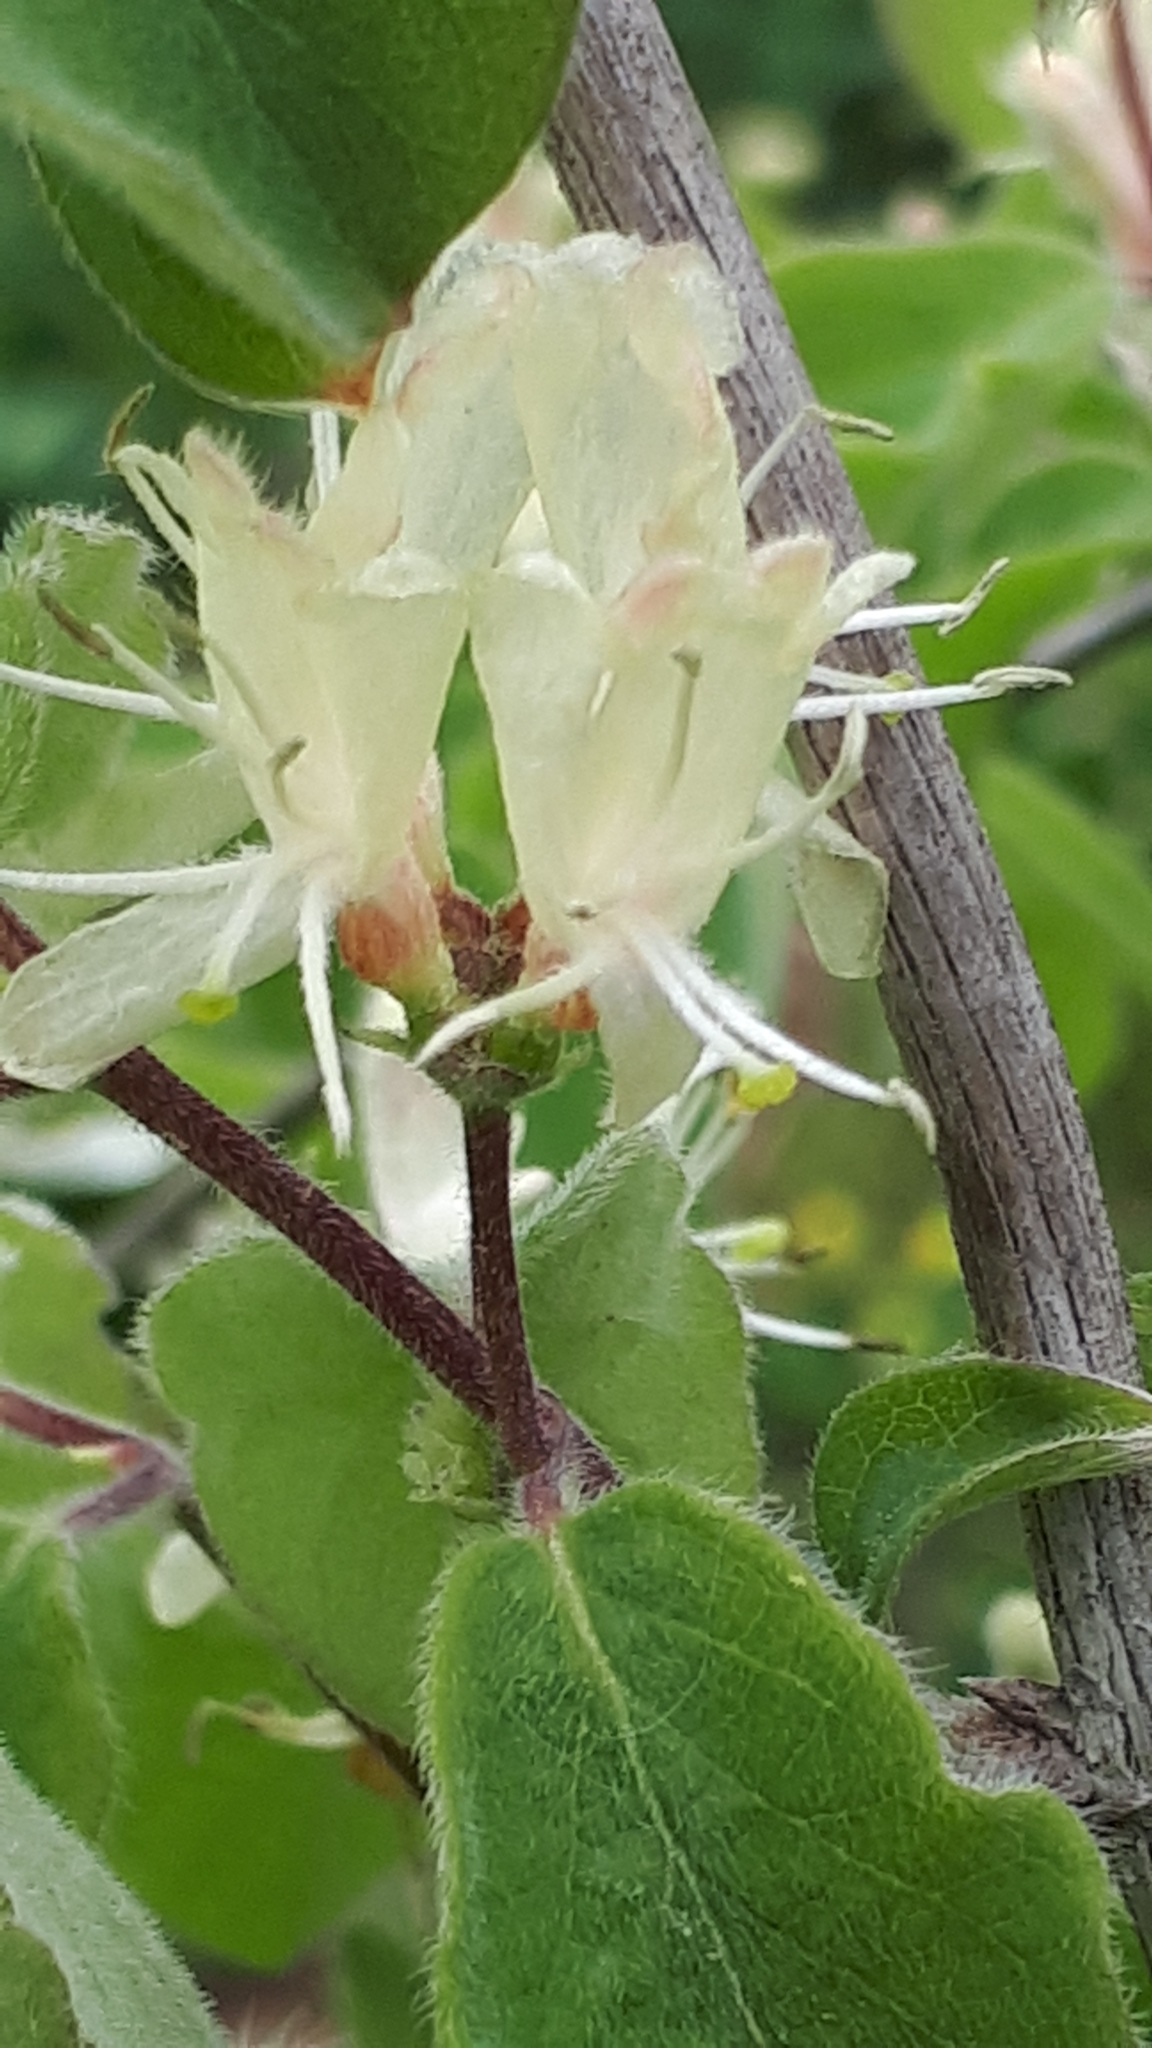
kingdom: Plantae
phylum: Tracheophyta
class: Magnoliopsida
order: Dipsacales
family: Caprifoliaceae
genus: Lonicera
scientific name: Lonicera xylosteum
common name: Fly honeysuckle
